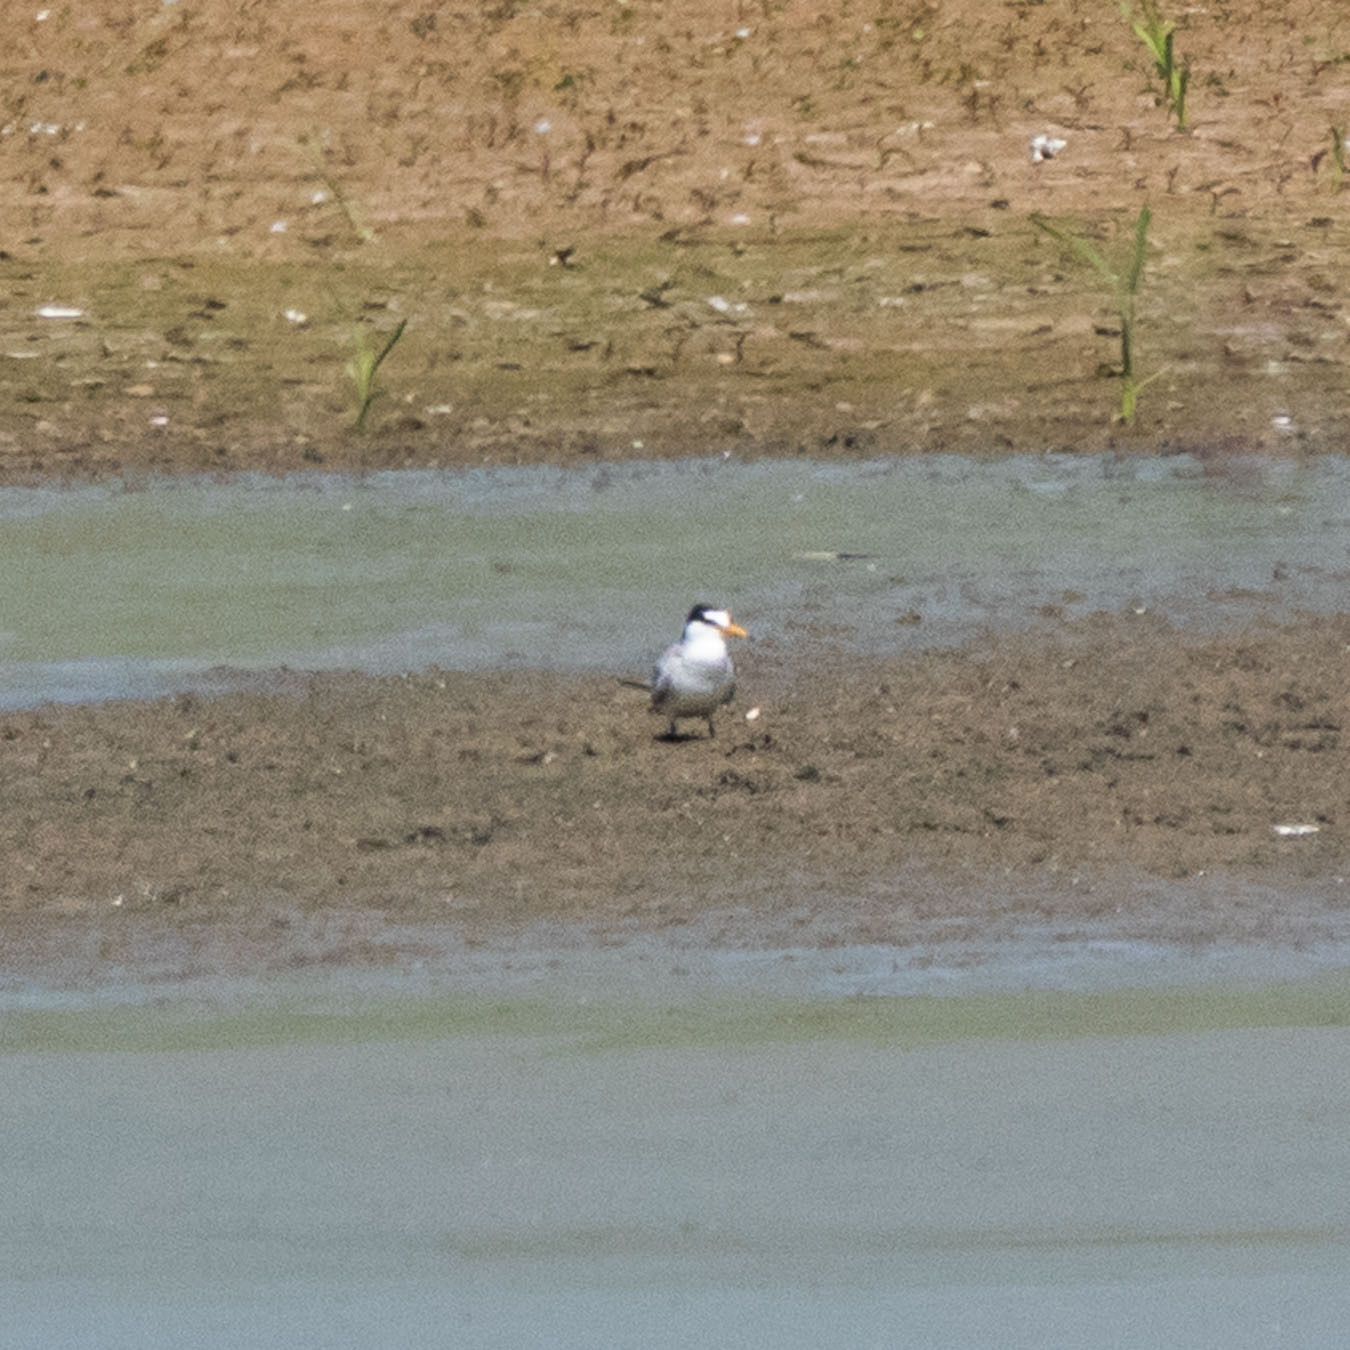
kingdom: Animalia
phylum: Chordata
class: Aves
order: Charadriiformes
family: Laridae
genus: Sternula
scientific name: Sternula albifrons
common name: Little tern
